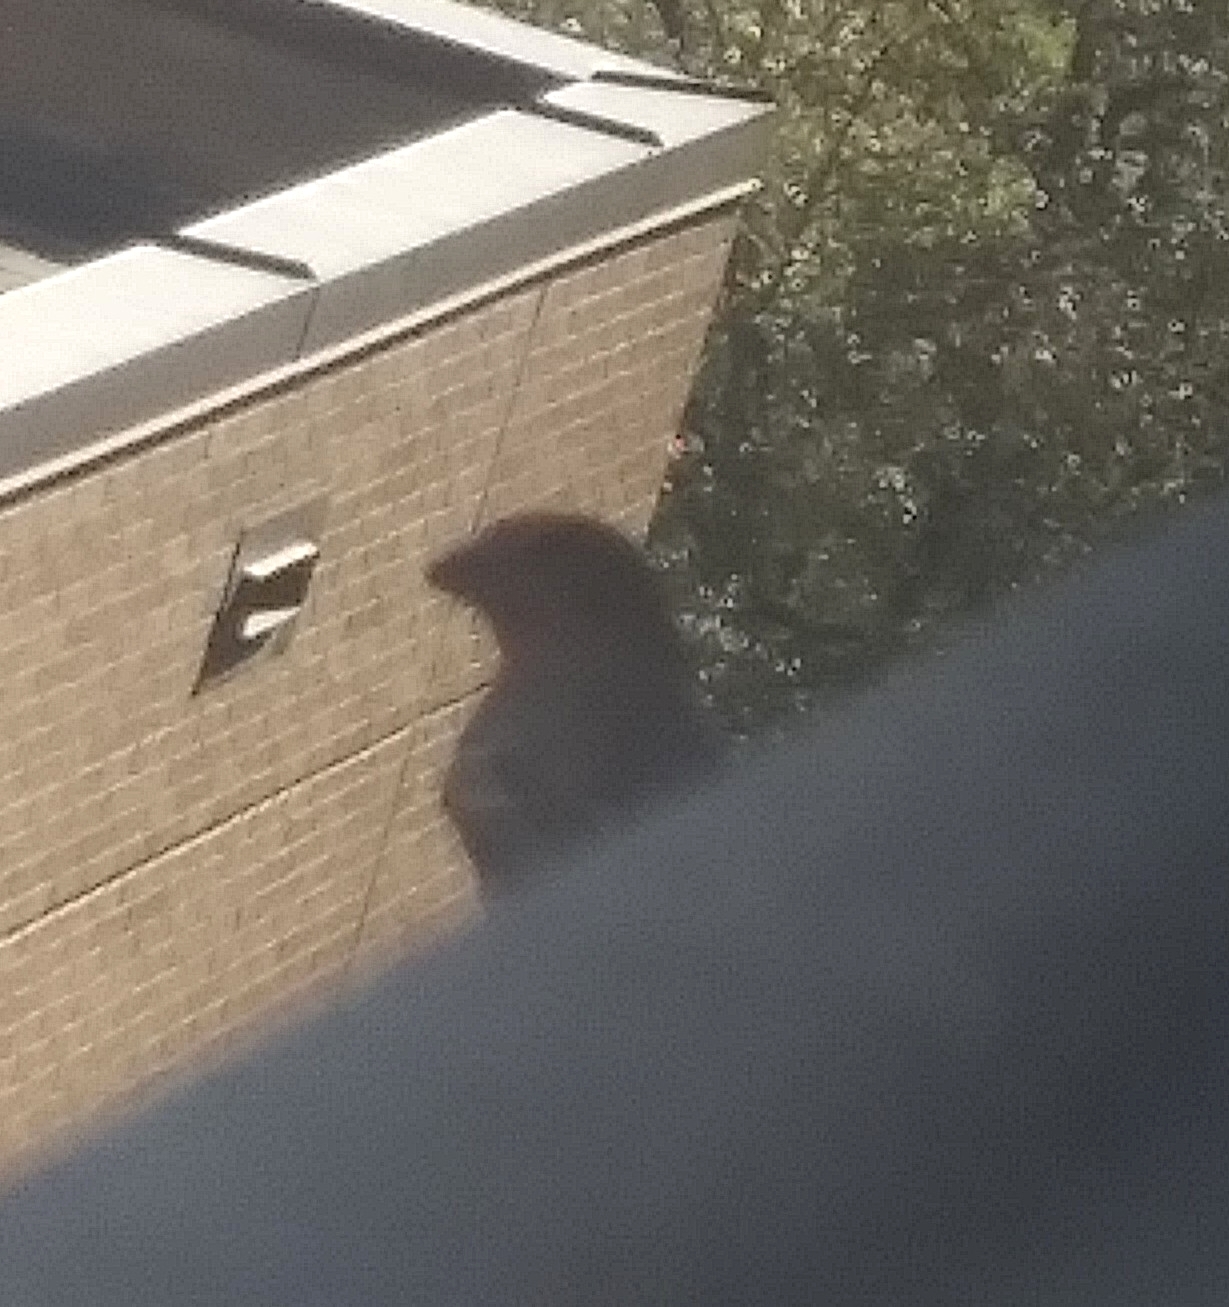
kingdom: Animalia
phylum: Chordata
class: Aves
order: Passeriformes
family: Fringillidae
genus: Haemorhous
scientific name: Haemorhous mexicanus
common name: House finch
